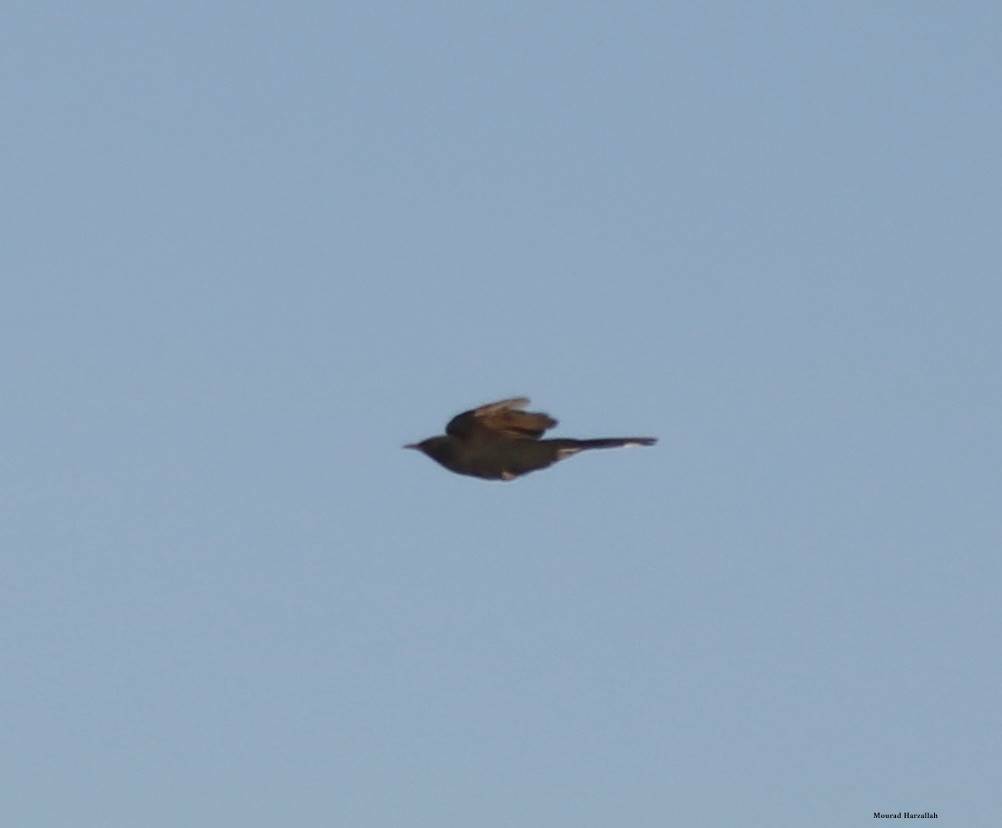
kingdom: Animalia
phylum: Chordata
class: Aves
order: Passeriformes
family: Muscicapidae
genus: Cercotrichas
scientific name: Cercotrichas podobe
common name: Black scrub robin
